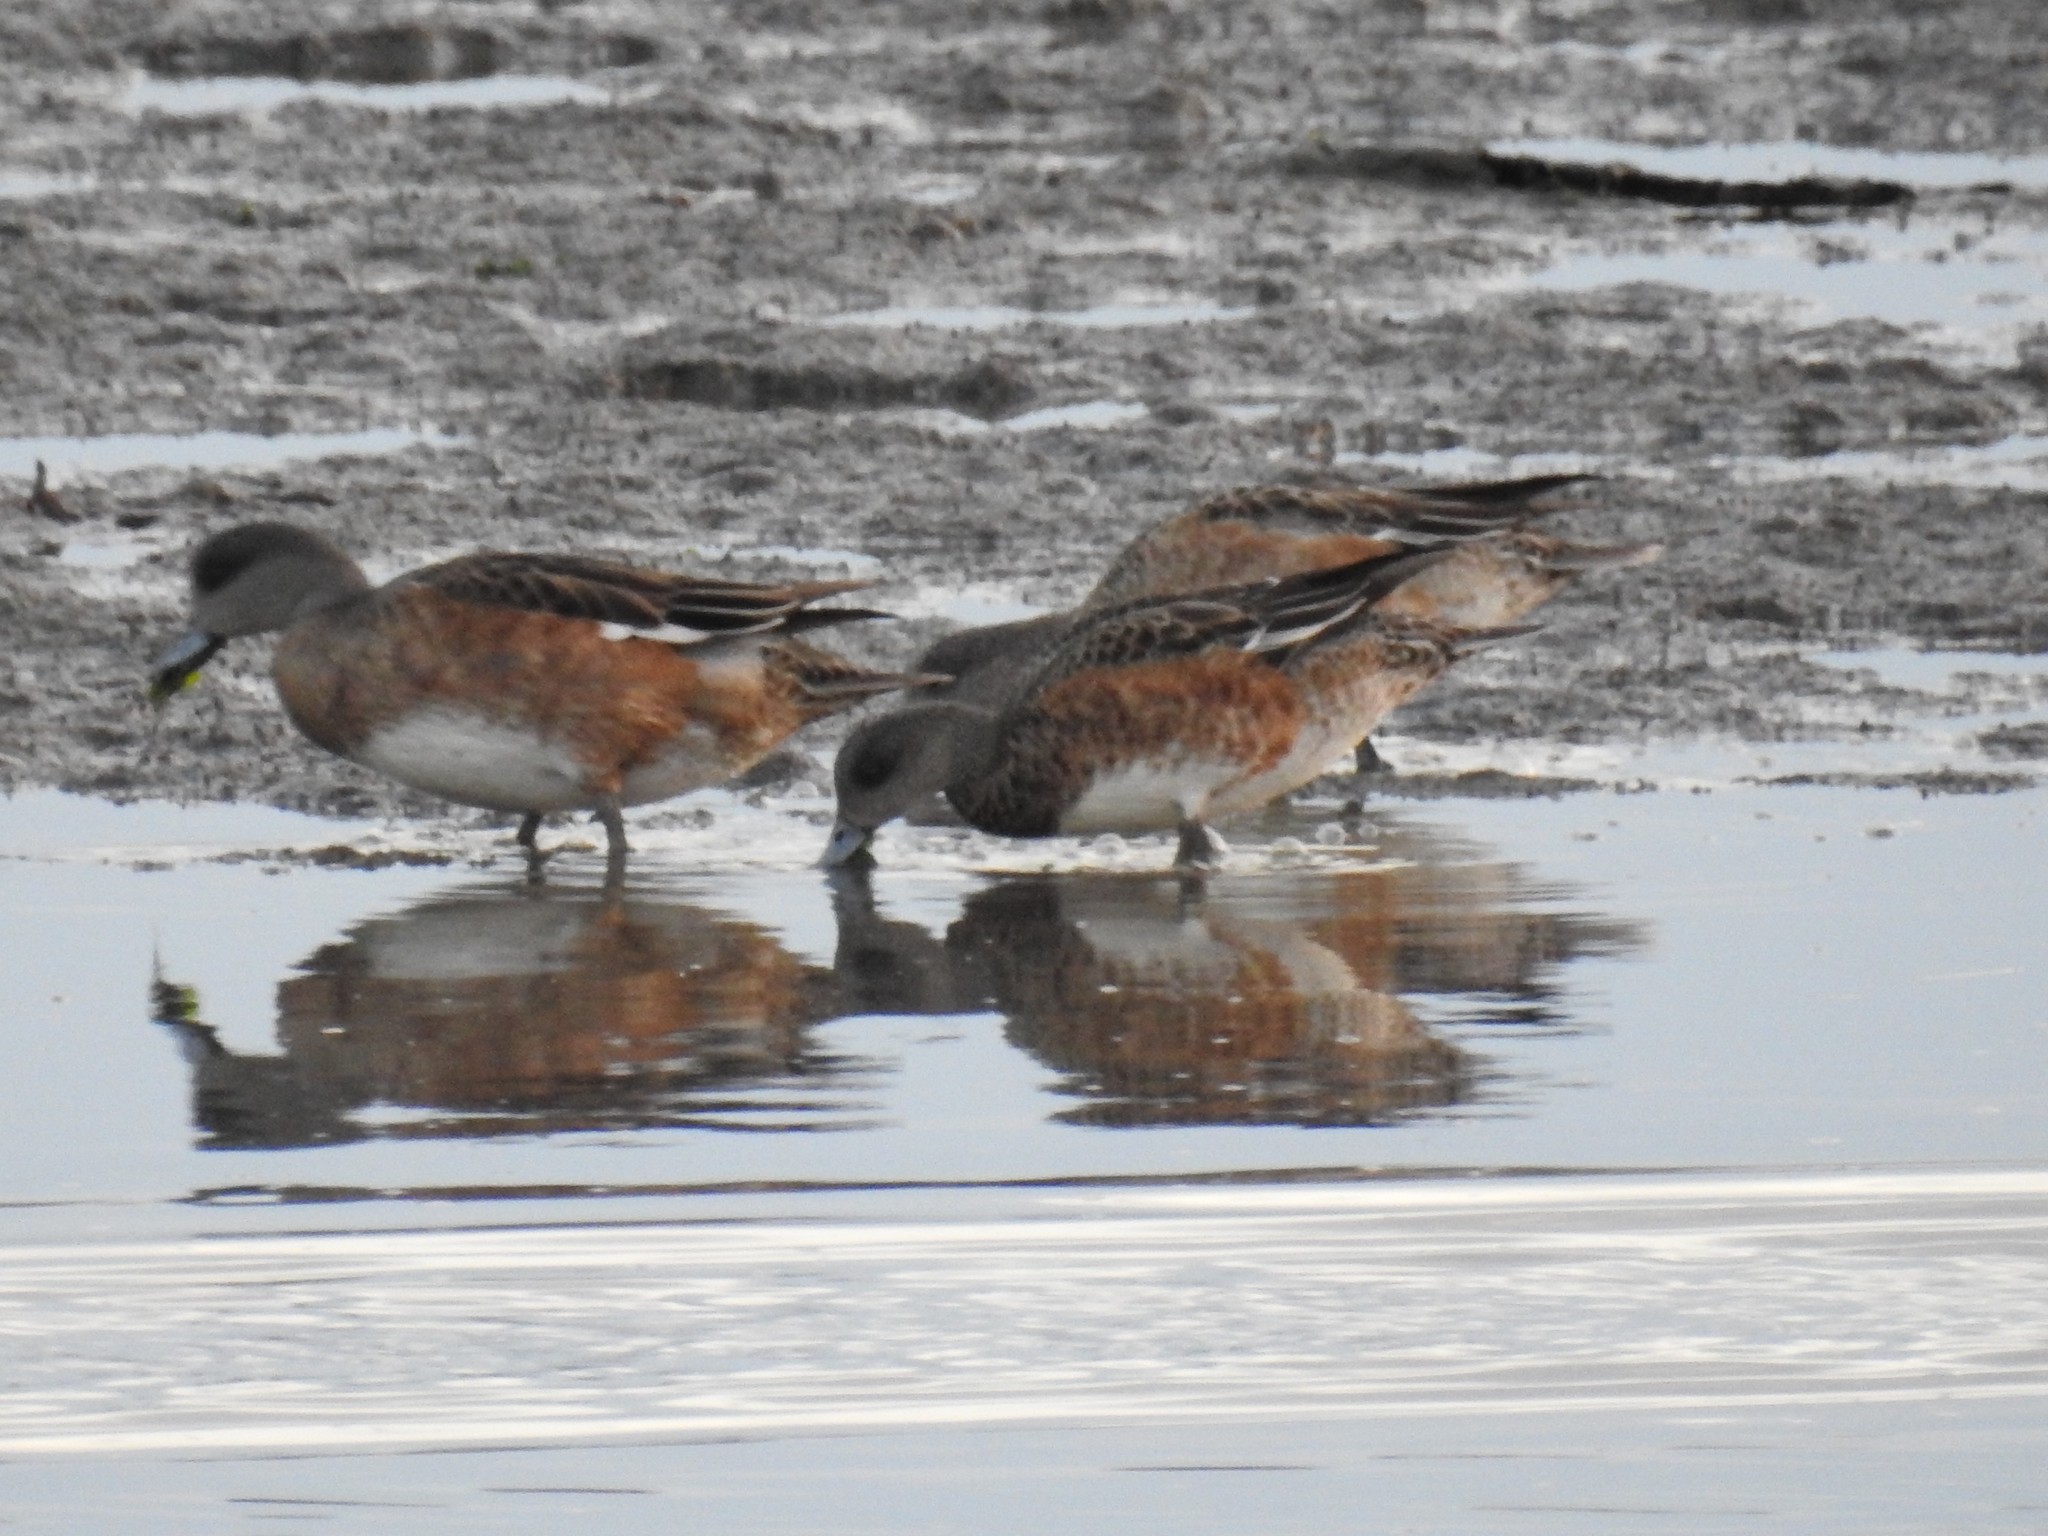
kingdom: Animalia
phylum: Chordata
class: Aves
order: Anseriformes
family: Anatidae
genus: Mareca
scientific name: Mareca americana
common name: American wigeon
